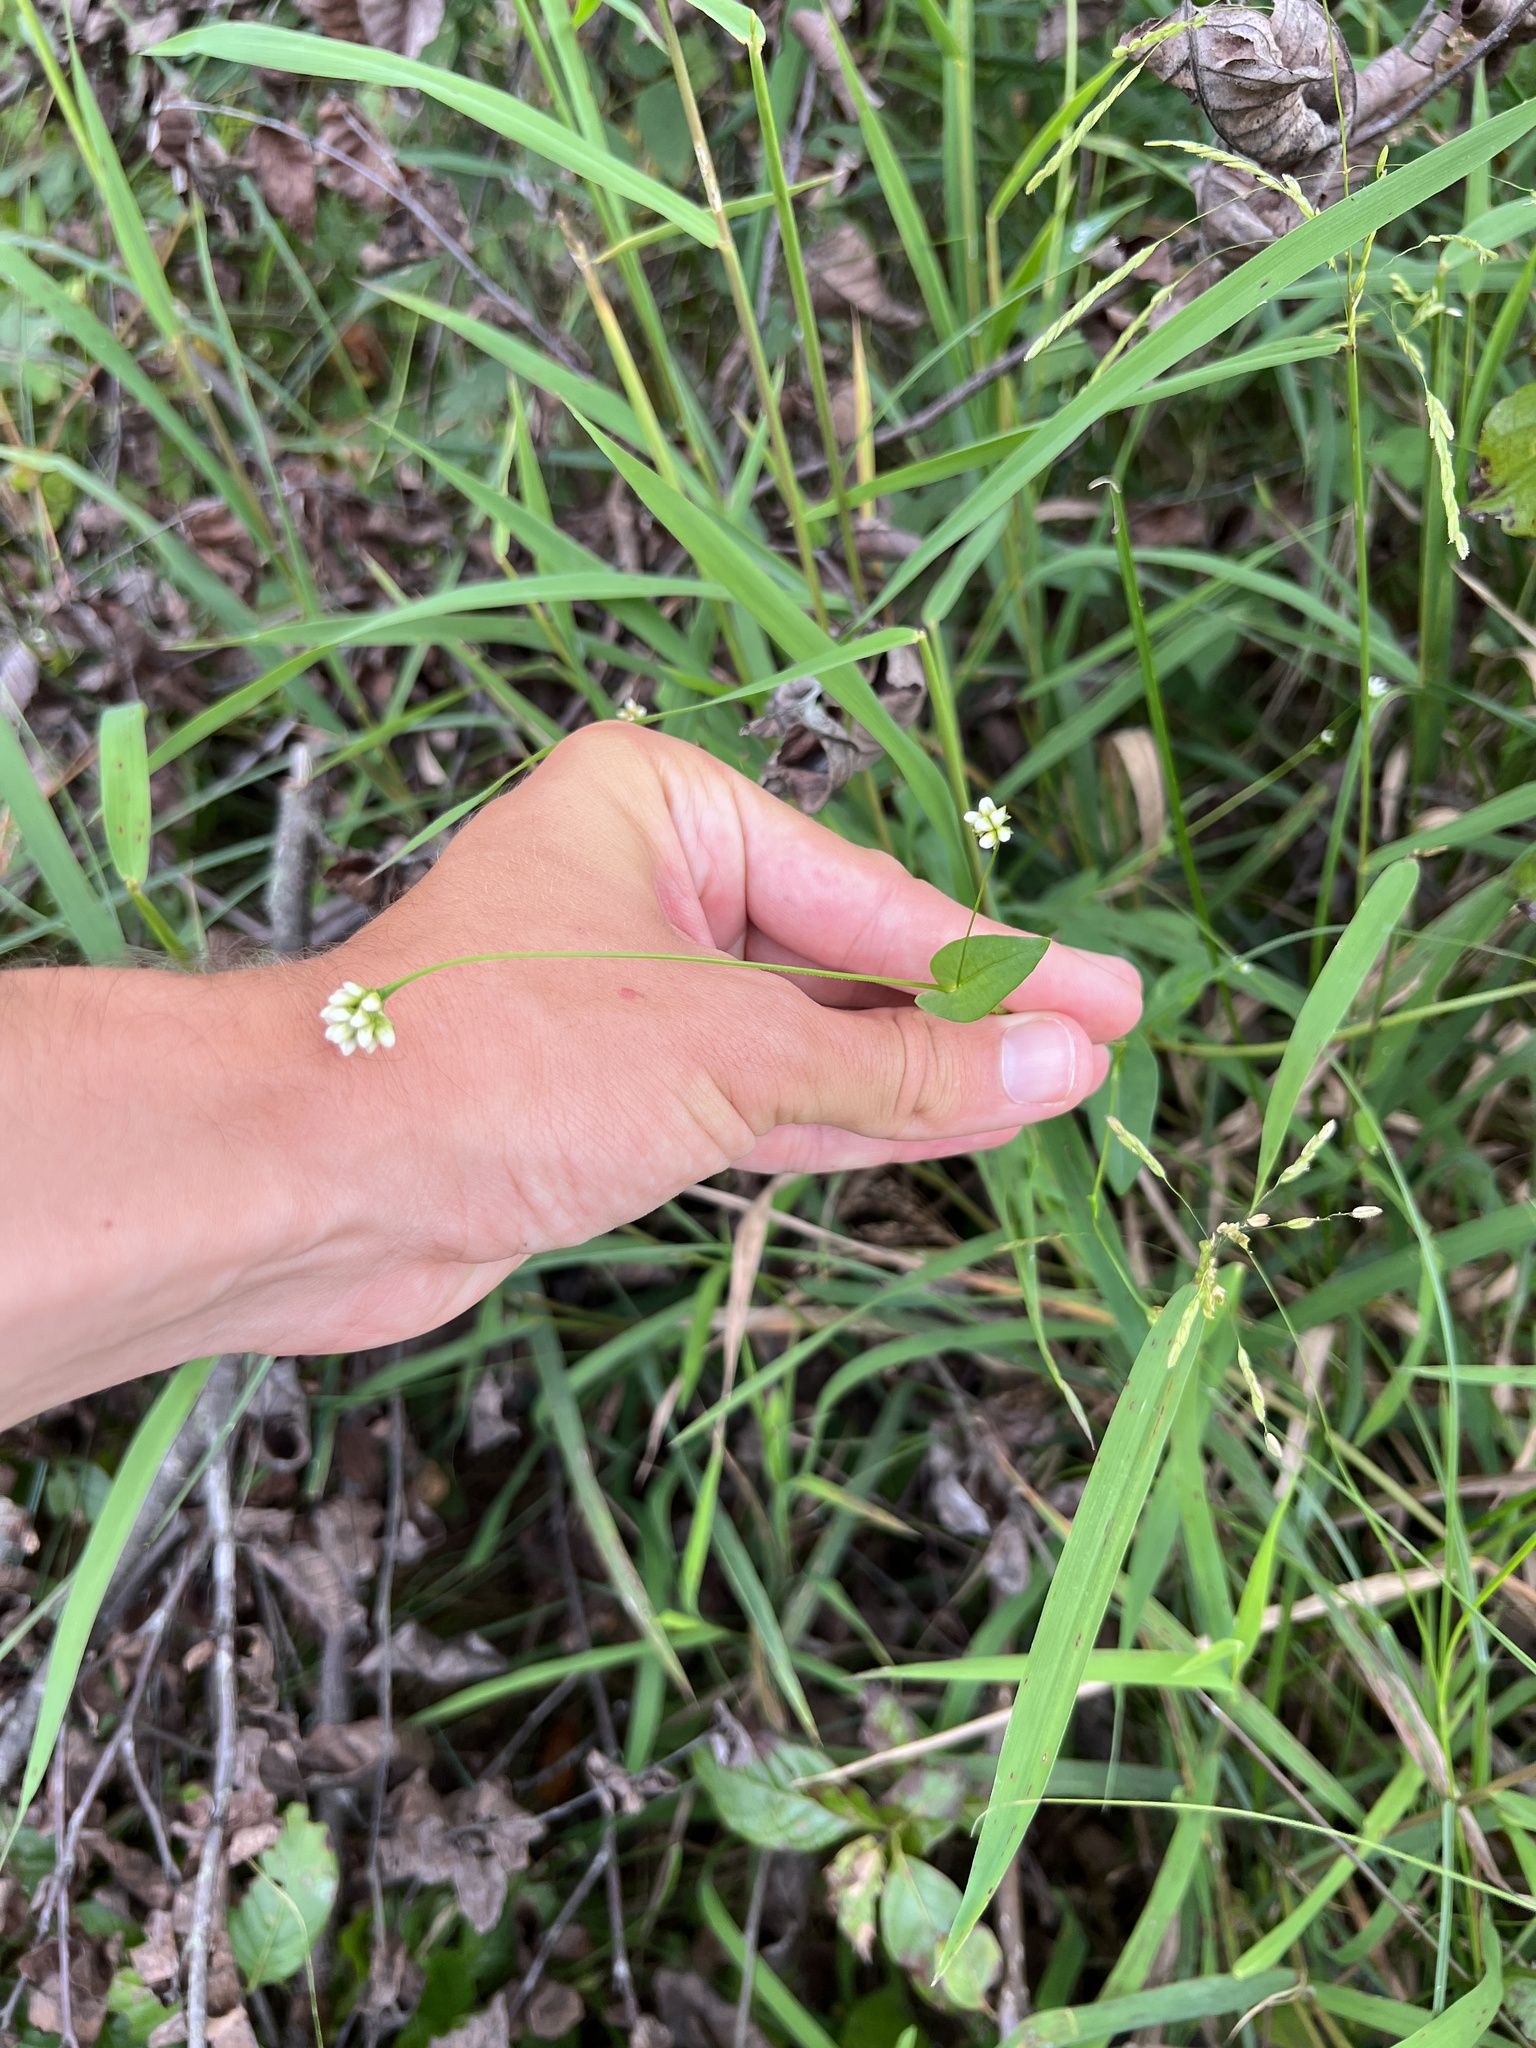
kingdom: Plantae
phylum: Tracheophyta
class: Magnoliopsida
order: Caryophyllales
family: Polygonaceae
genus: Persicaria
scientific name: Persicaria sagittata
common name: American tearthumb
